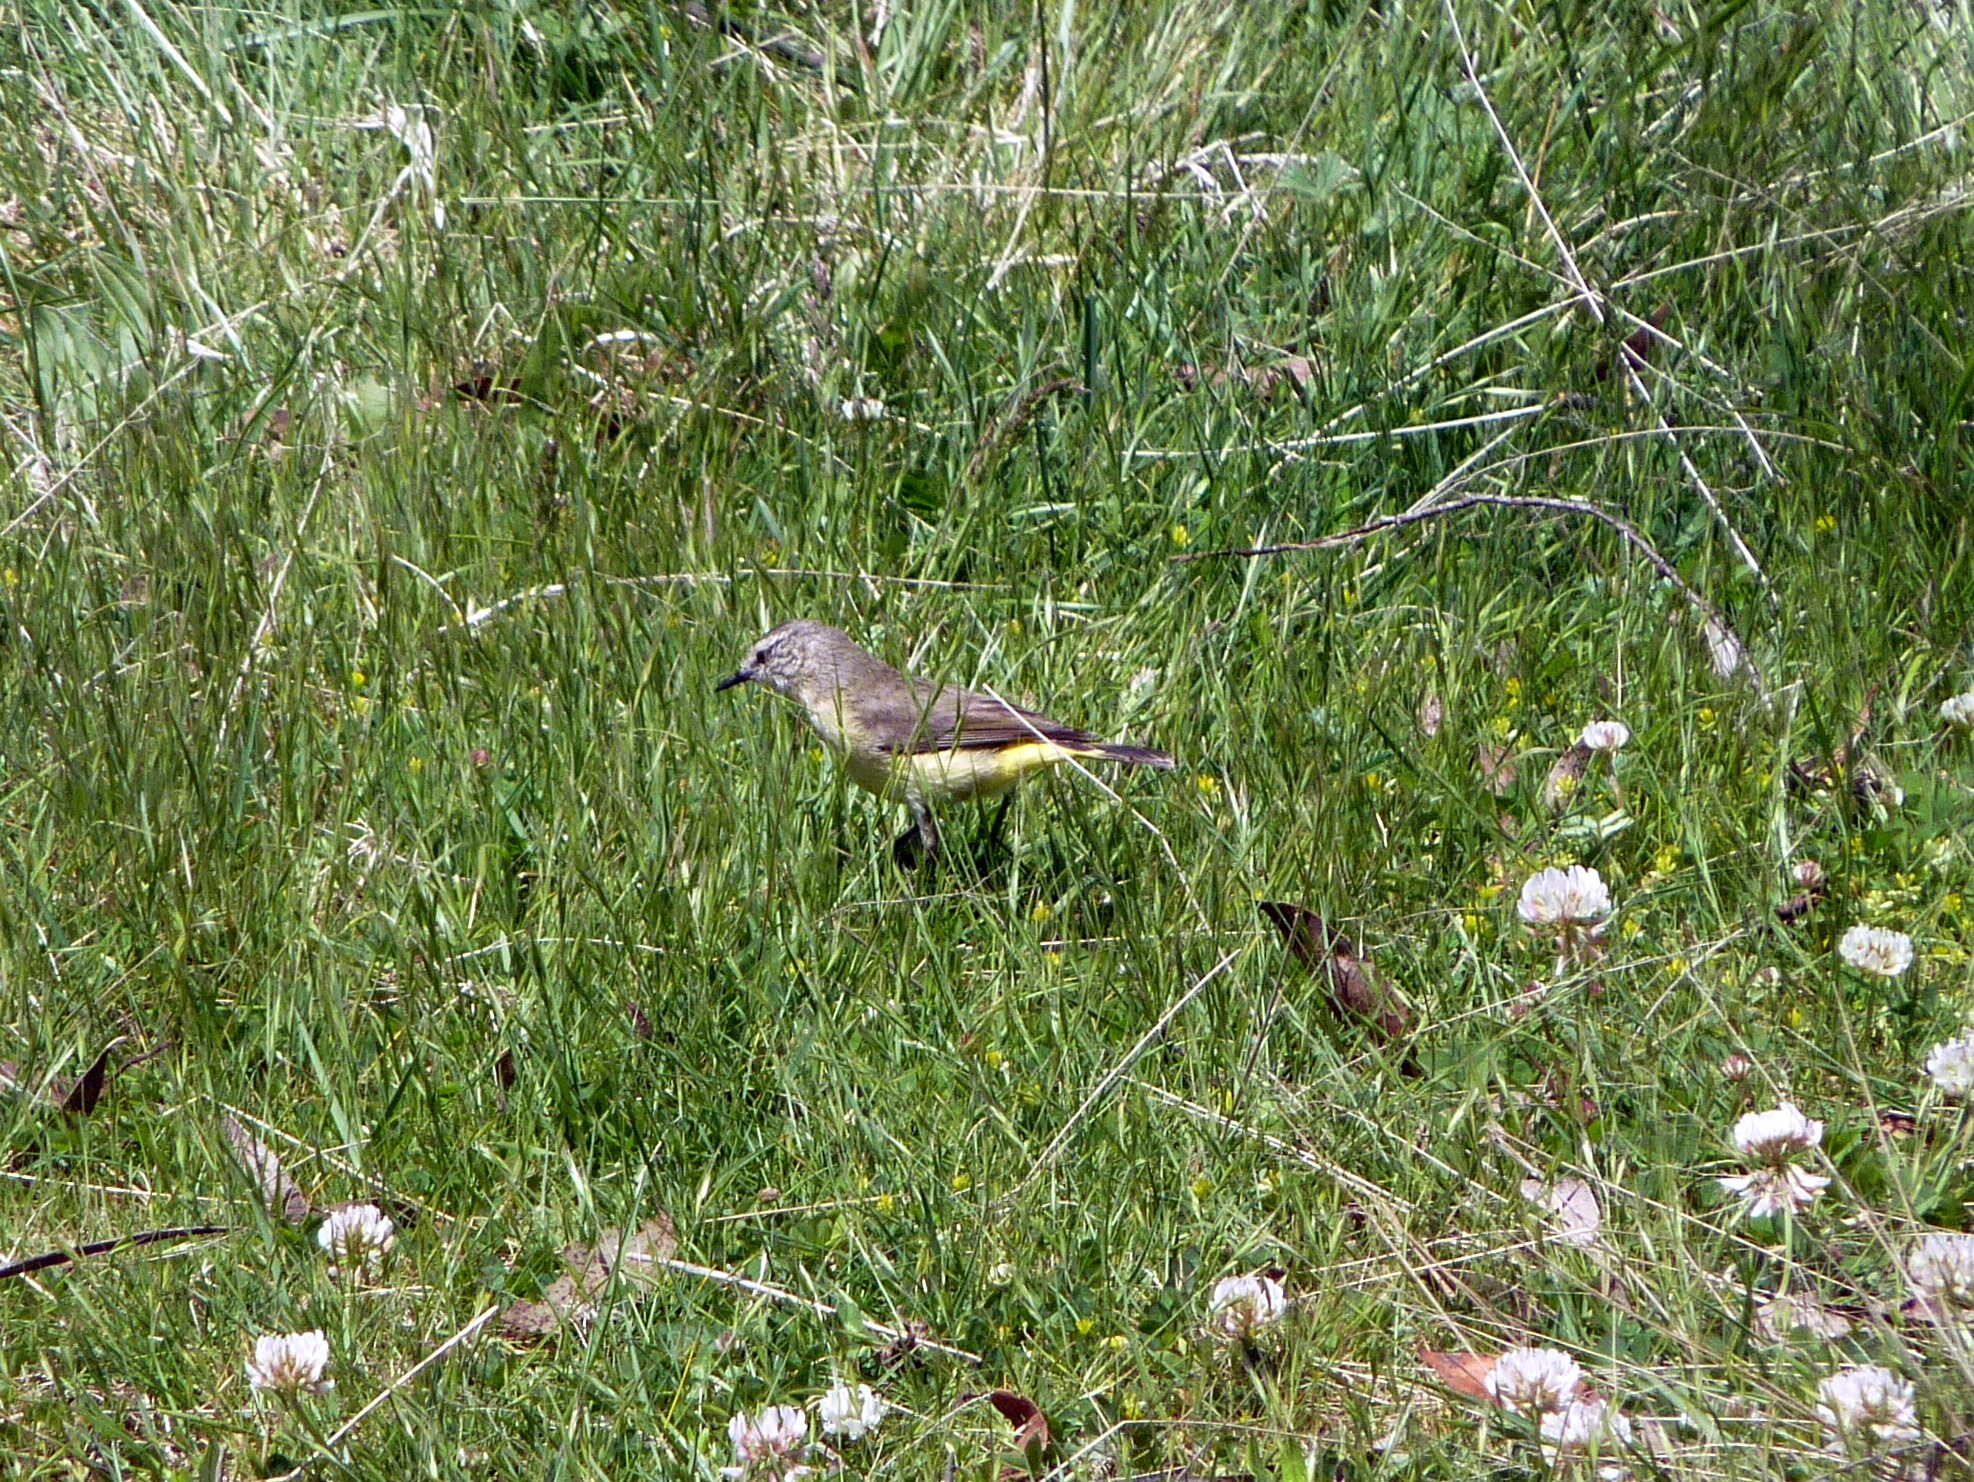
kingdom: Animalia
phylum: Chordata
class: Aves
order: Passeriformes
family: Acanthizidae
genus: Acanthiza
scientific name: Acanthiza chrysorrhoa
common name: Yellow-rumped thornbill
